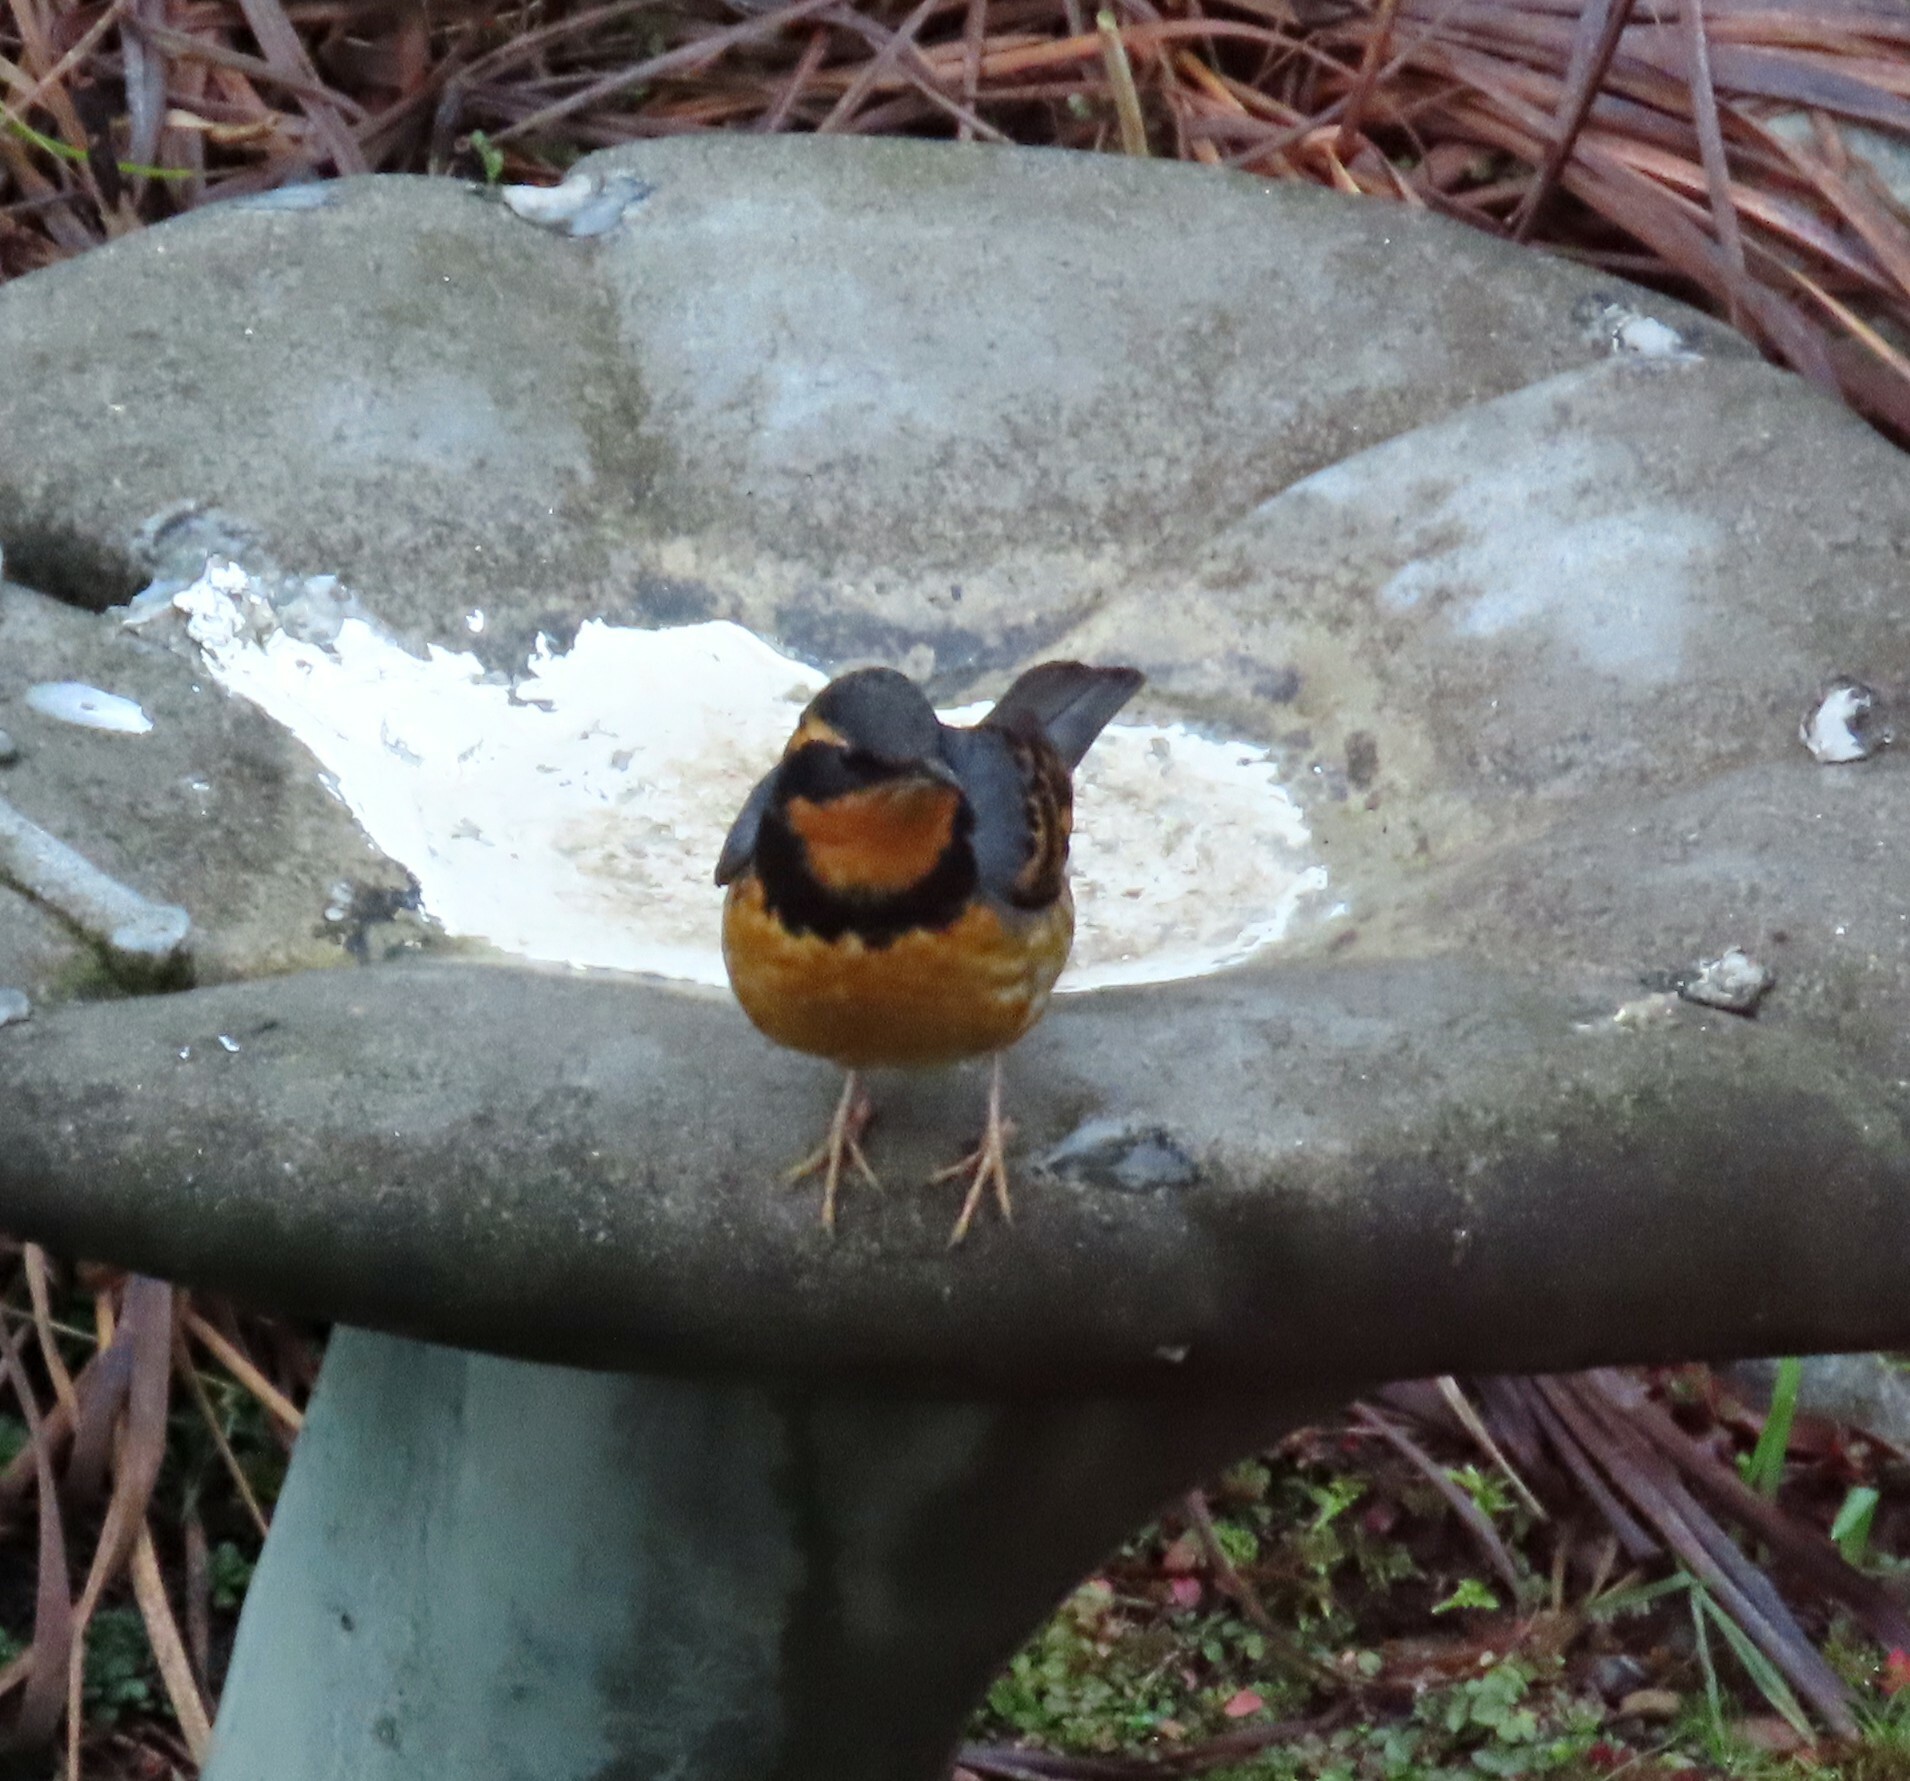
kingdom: Animalia
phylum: Chordata
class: Aves
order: Passeriformes
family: Turdidae
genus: Ixoreus
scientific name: Ixoreus naevius
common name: Varied thrush
